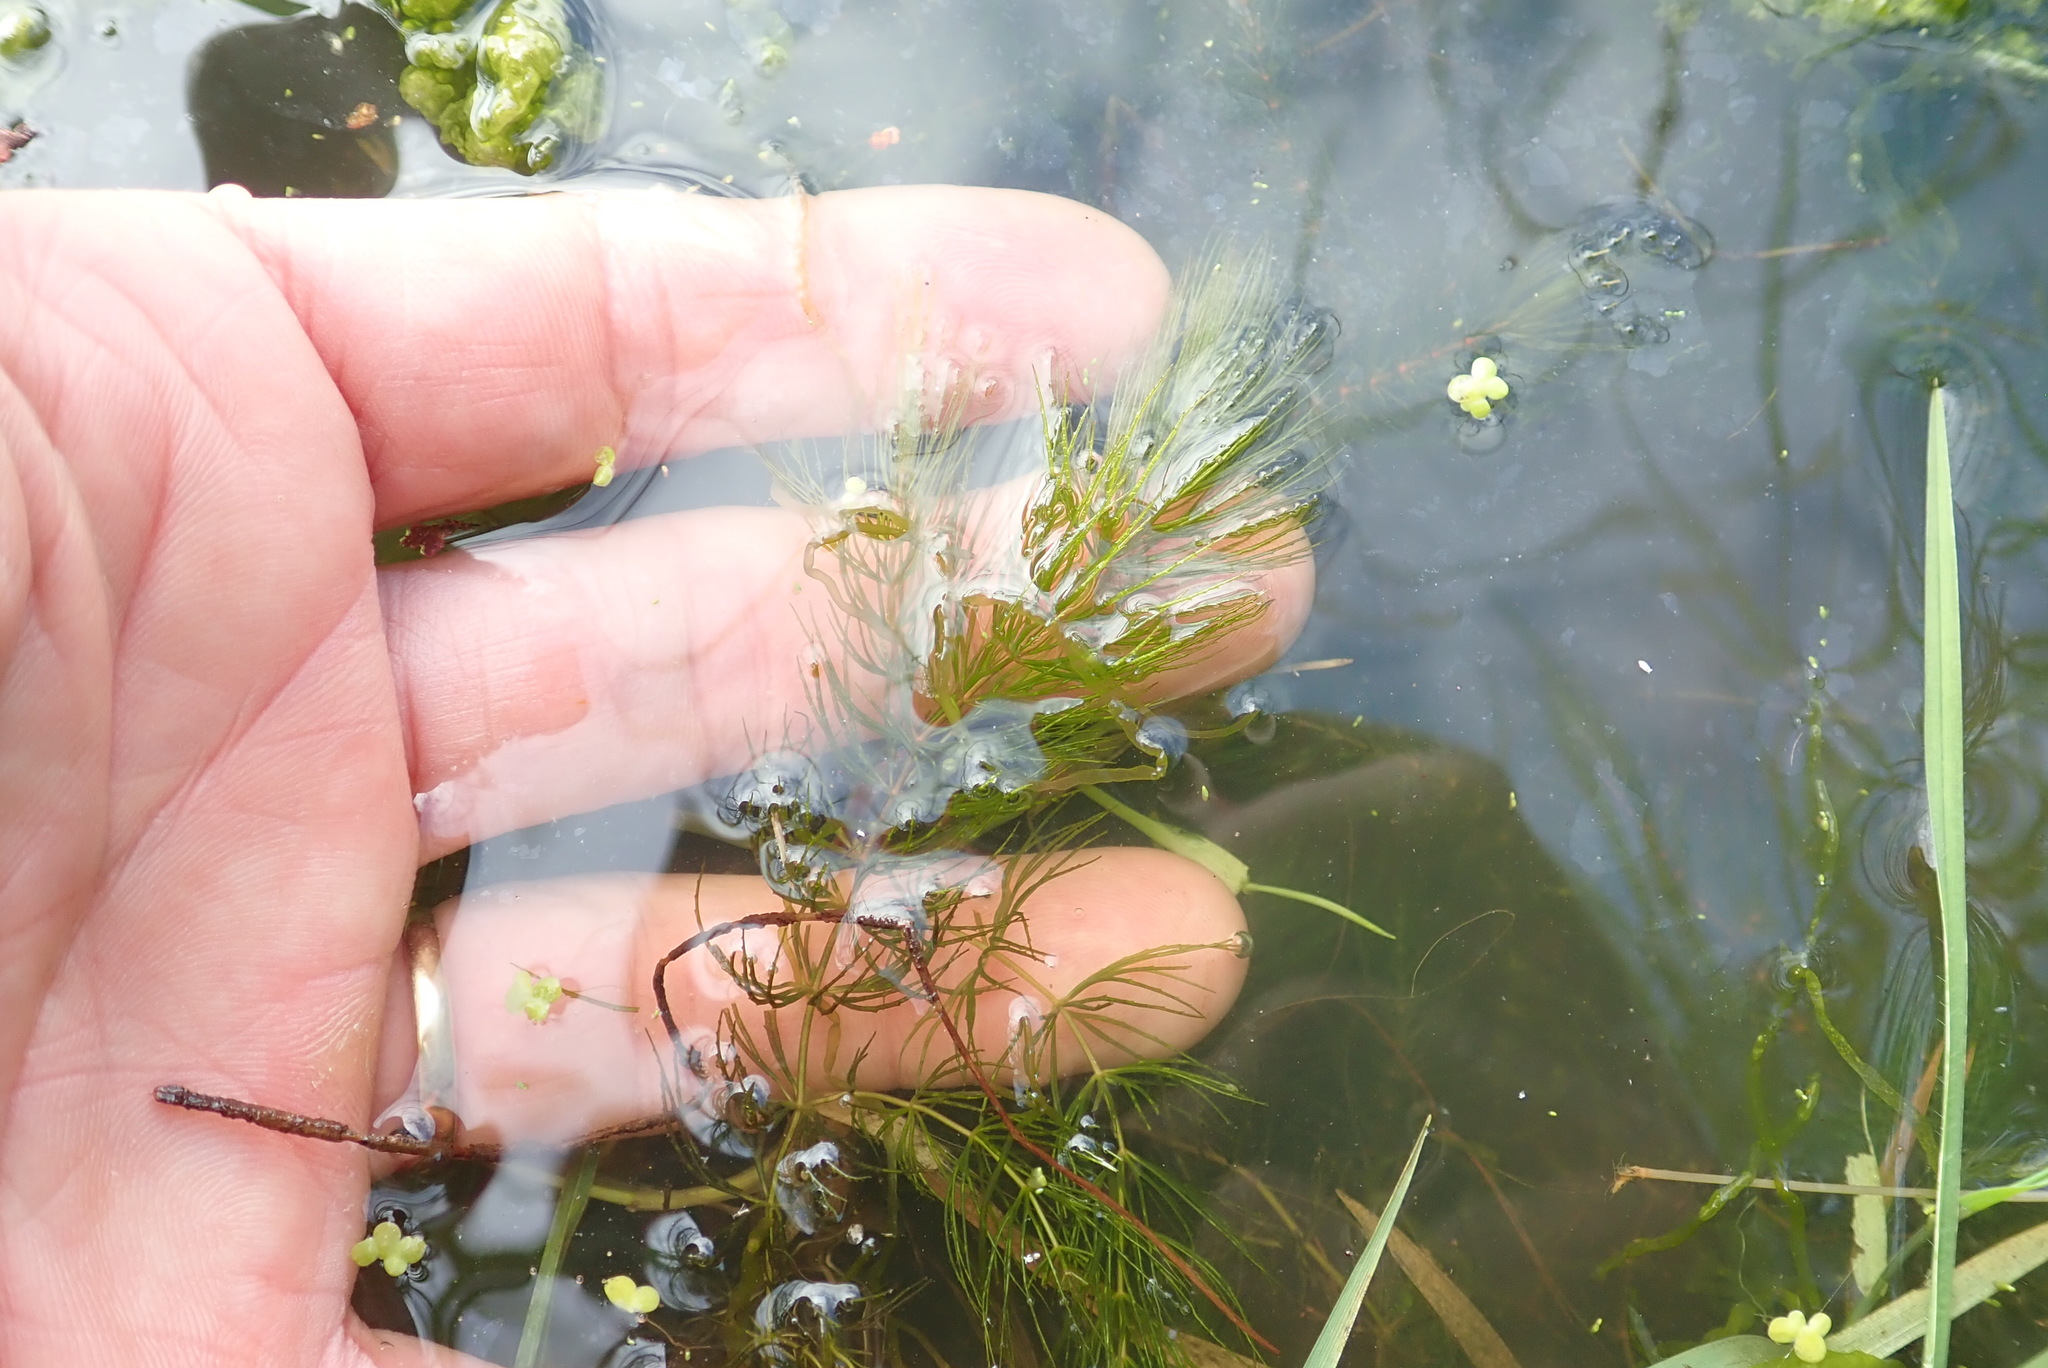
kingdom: Plantae
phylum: Tracheophyta
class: Magnoliopsida
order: Ceratophyllales
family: Ceratophyllaceae
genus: Ceratophyllum
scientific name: Ceratophyllum demersum
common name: Rigid hornwort
